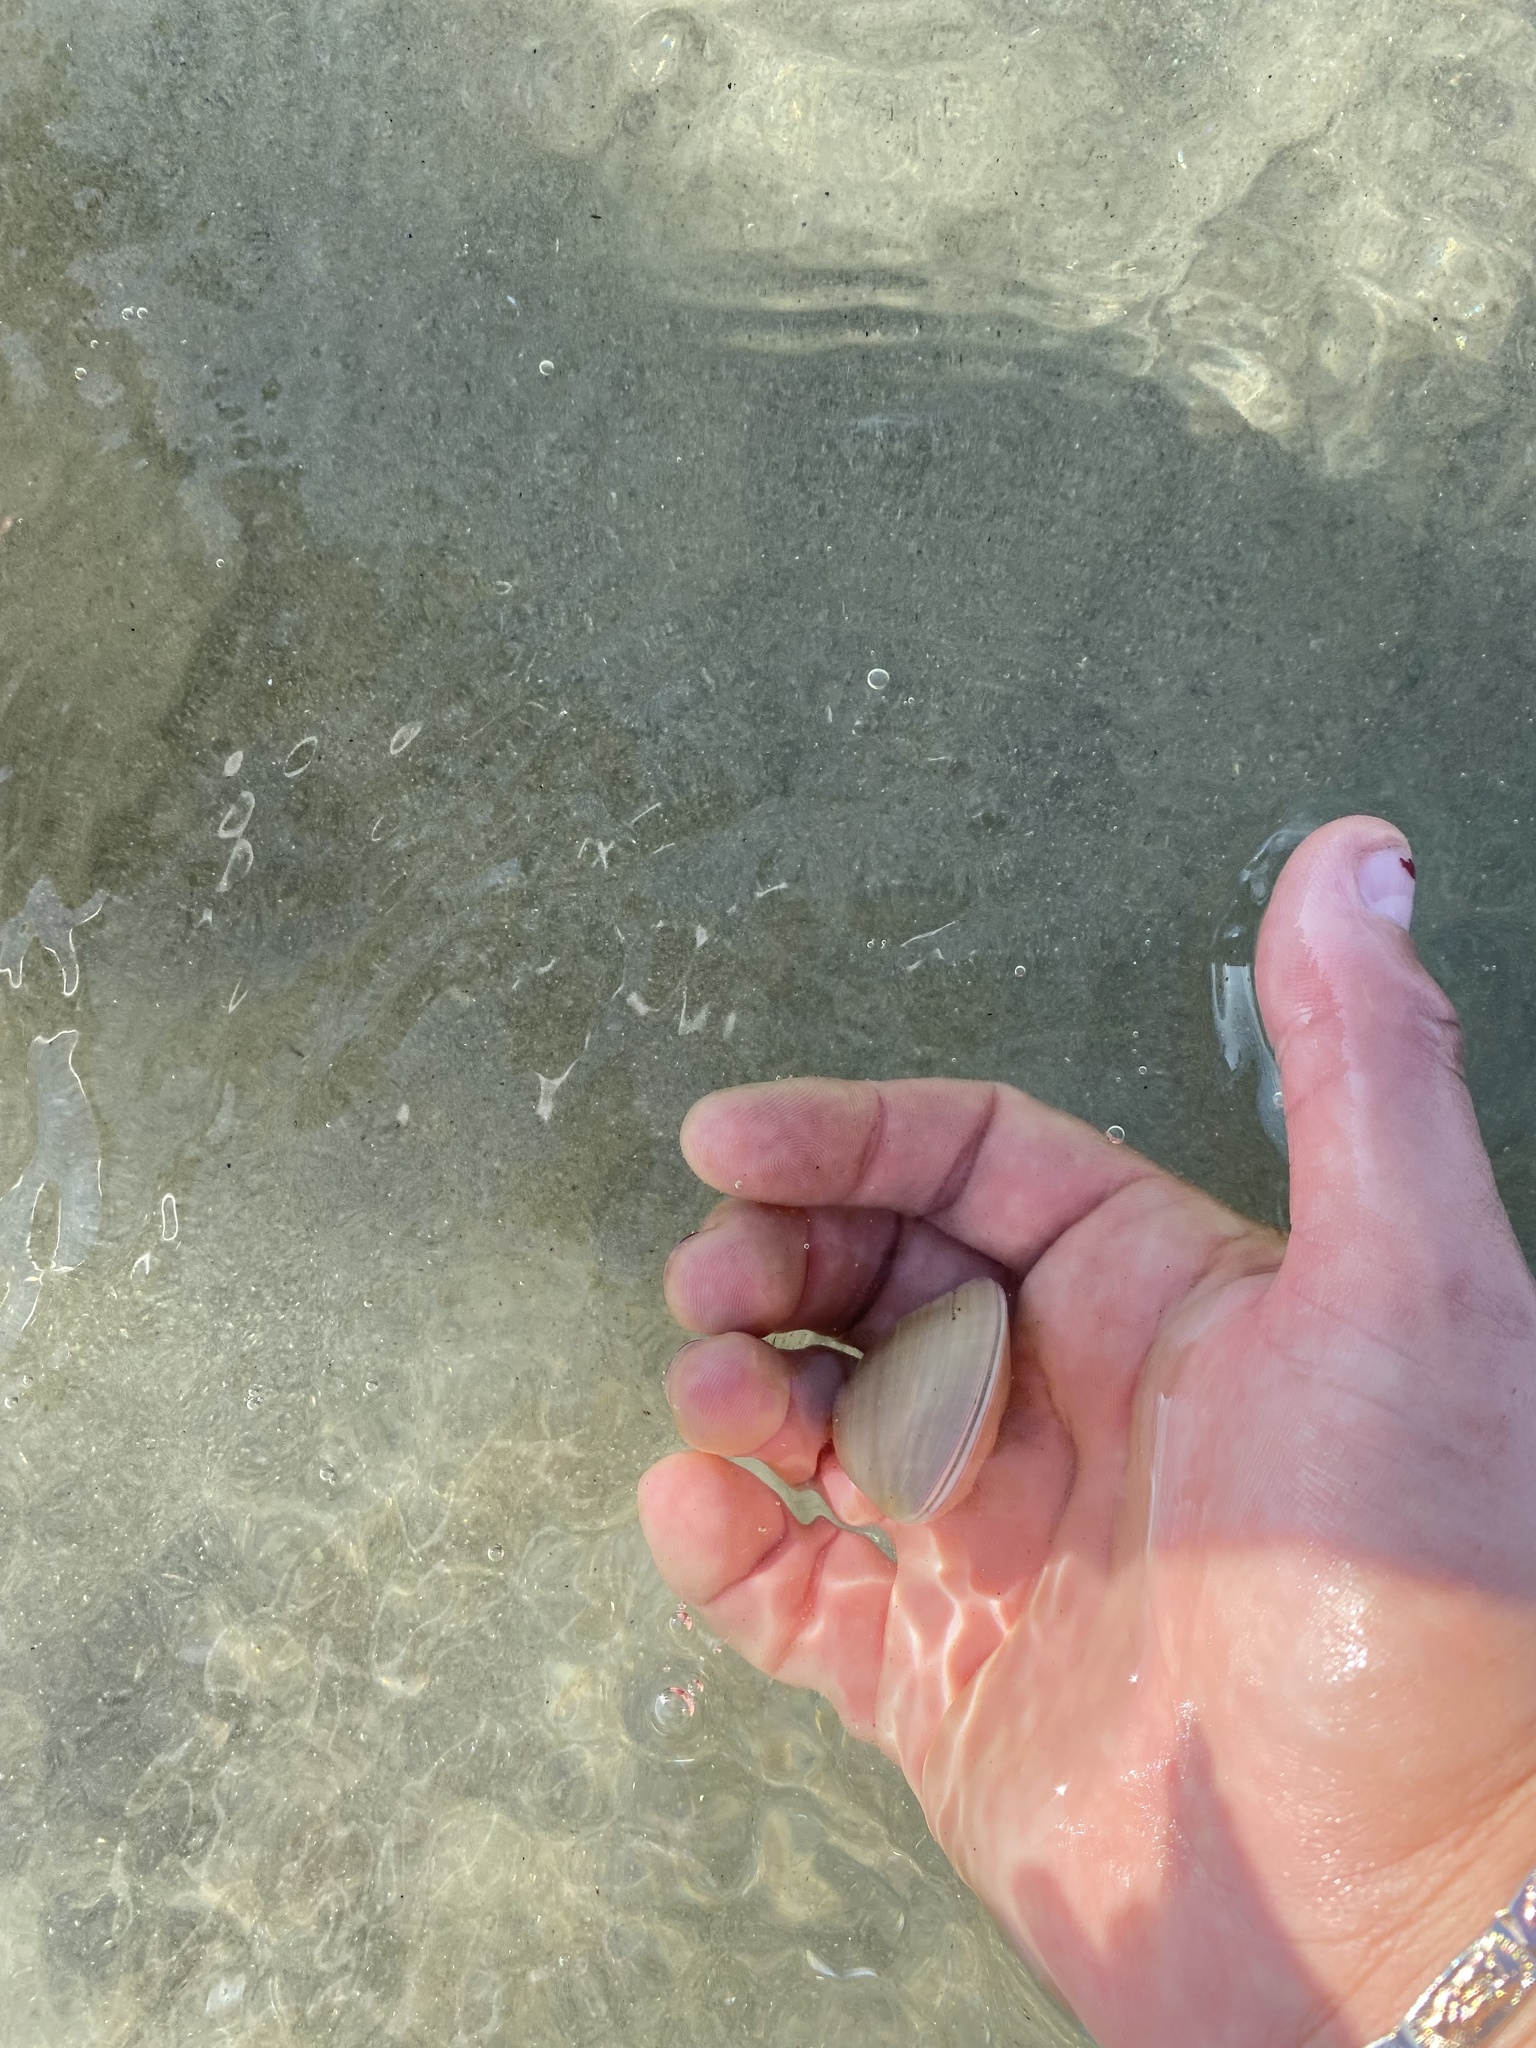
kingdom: Animalia
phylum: Mollusca
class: Bivalvia
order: Venerida
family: Veneridae
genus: Tivela
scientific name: Tivela stultorum
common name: Pismo clam
